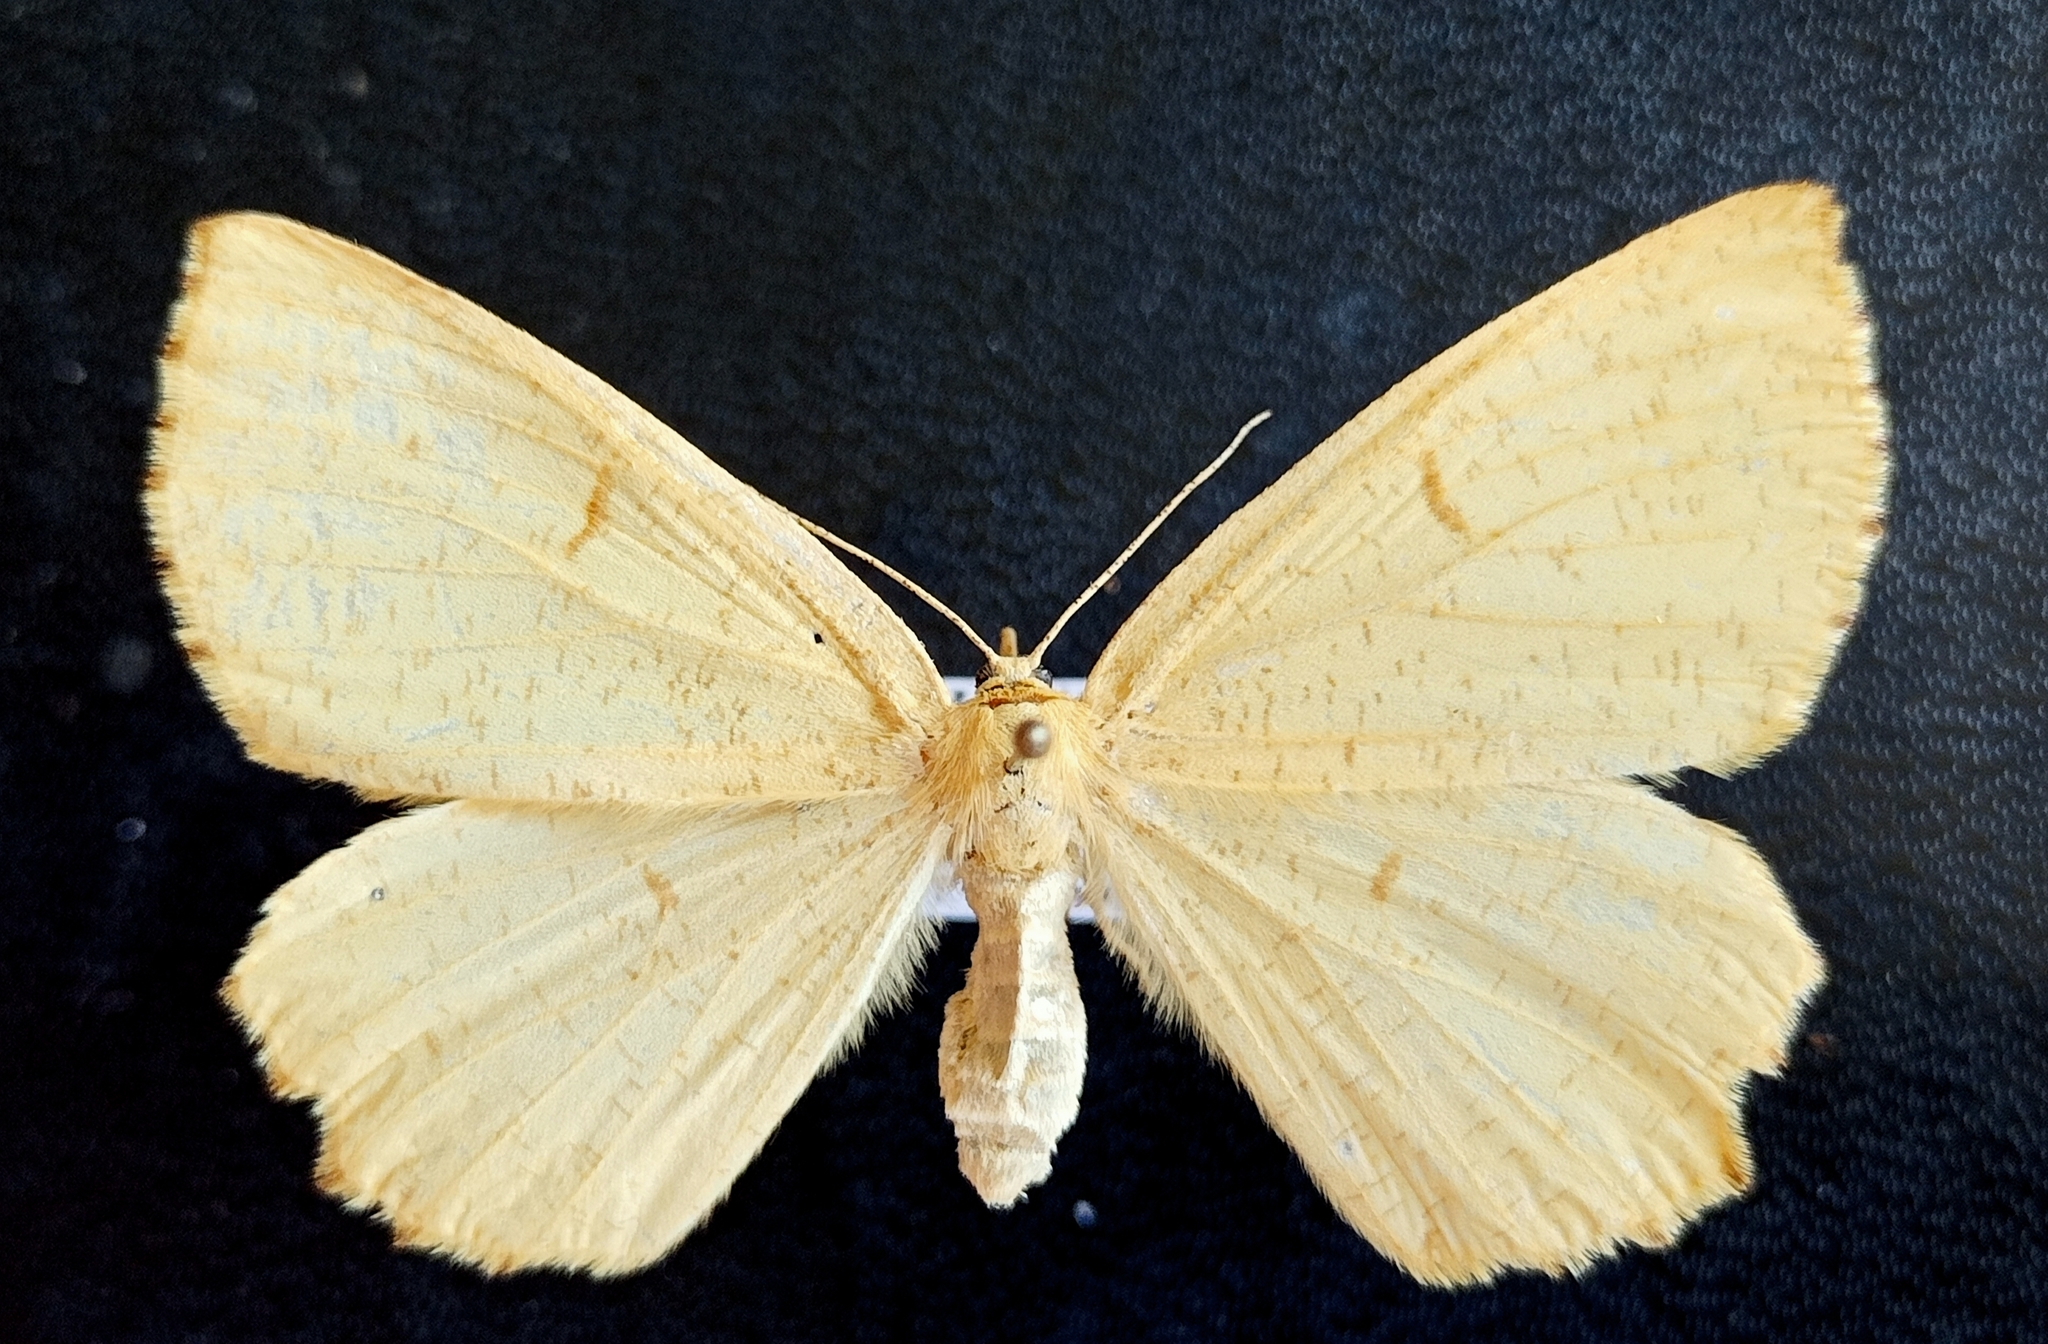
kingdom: Animalia
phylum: Arthropoda
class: Insecta
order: Lepidoptera
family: Geometridae
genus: Angerona
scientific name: Angerona prunaria
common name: Orange moth
